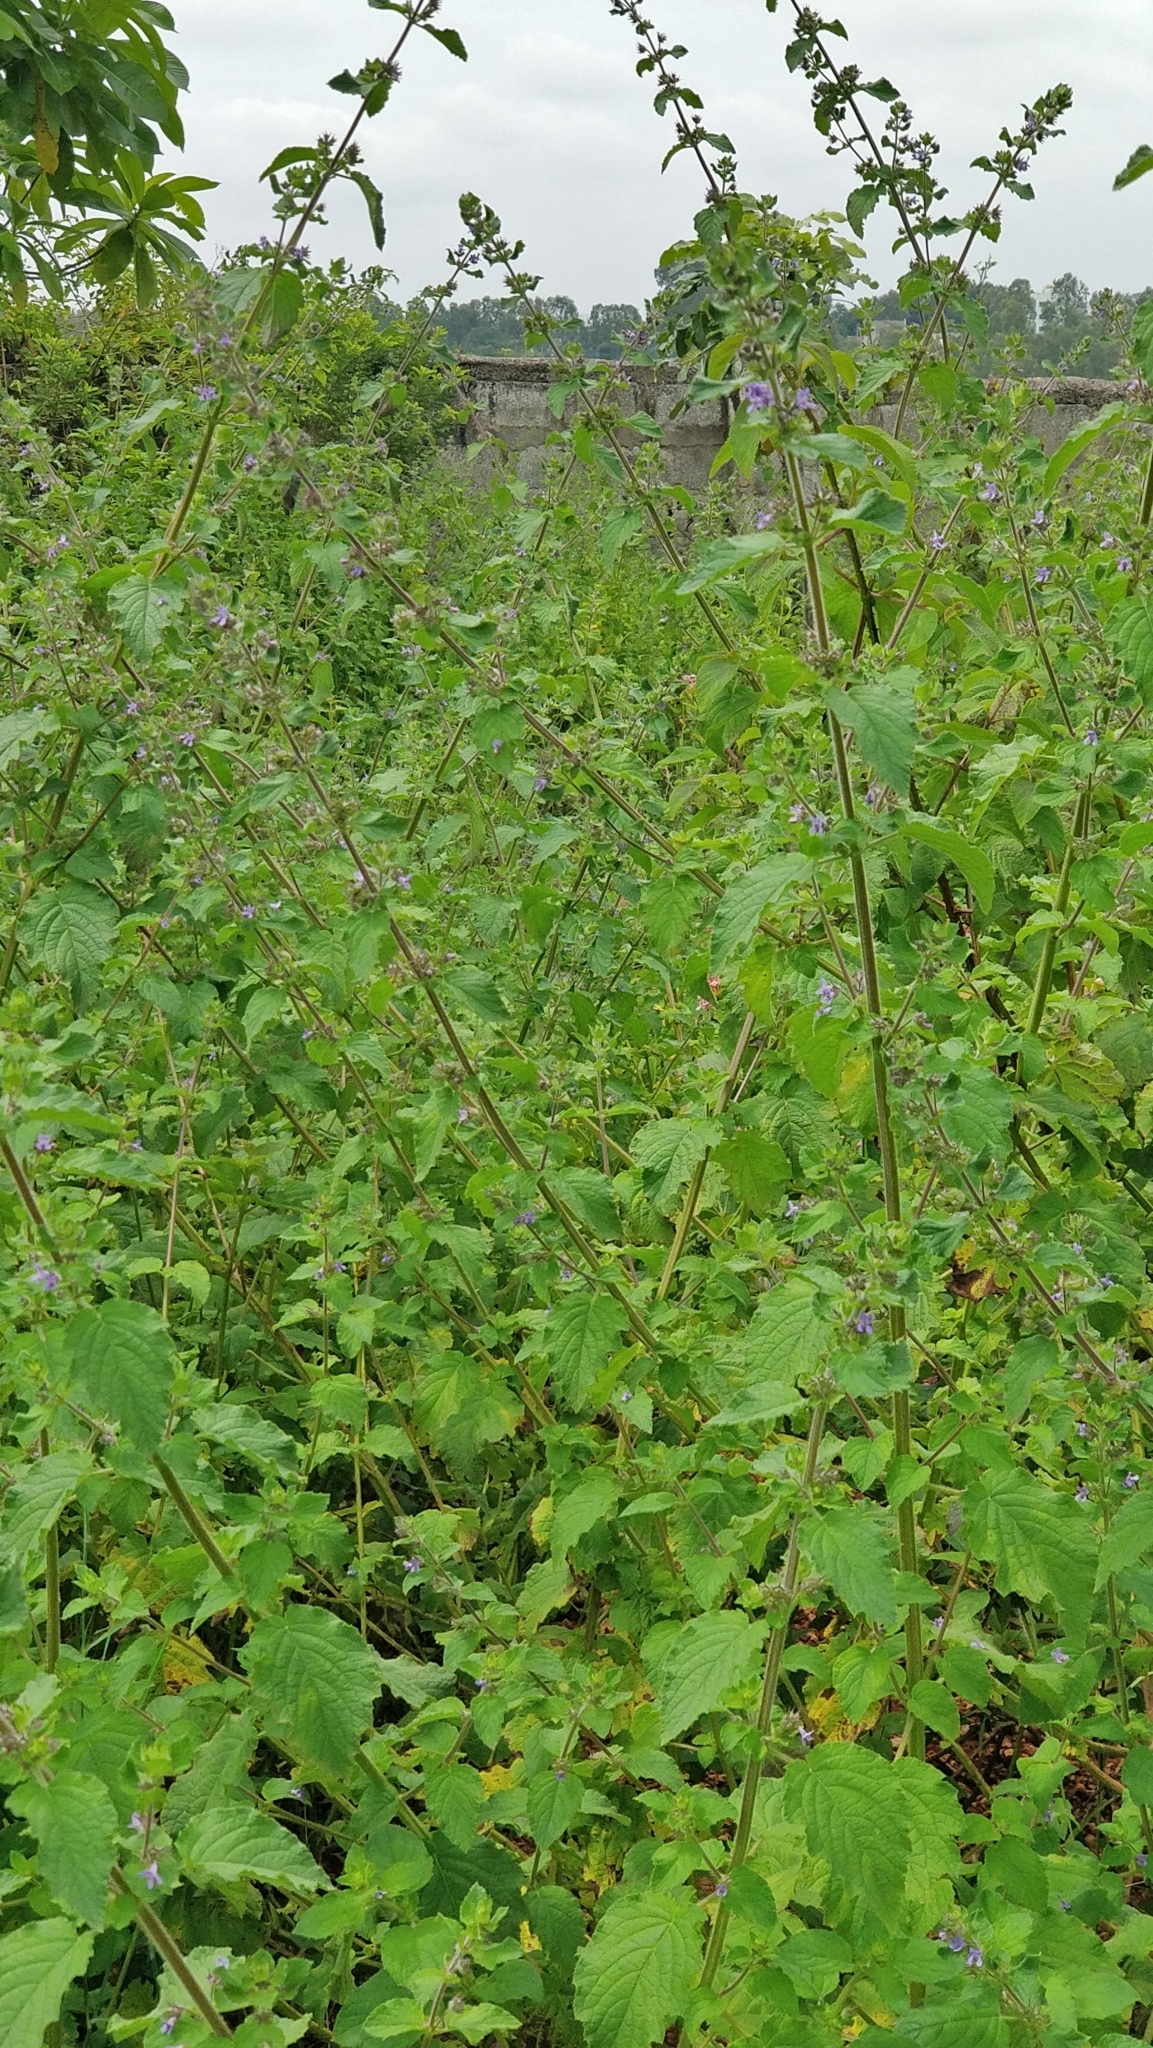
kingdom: Plantae
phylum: Tracheophyta
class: Magnoliopsida
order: Lamiales
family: Lamiaceae
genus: Mesosphaerum
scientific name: Mesosphaerum suaveolens
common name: Pignut
